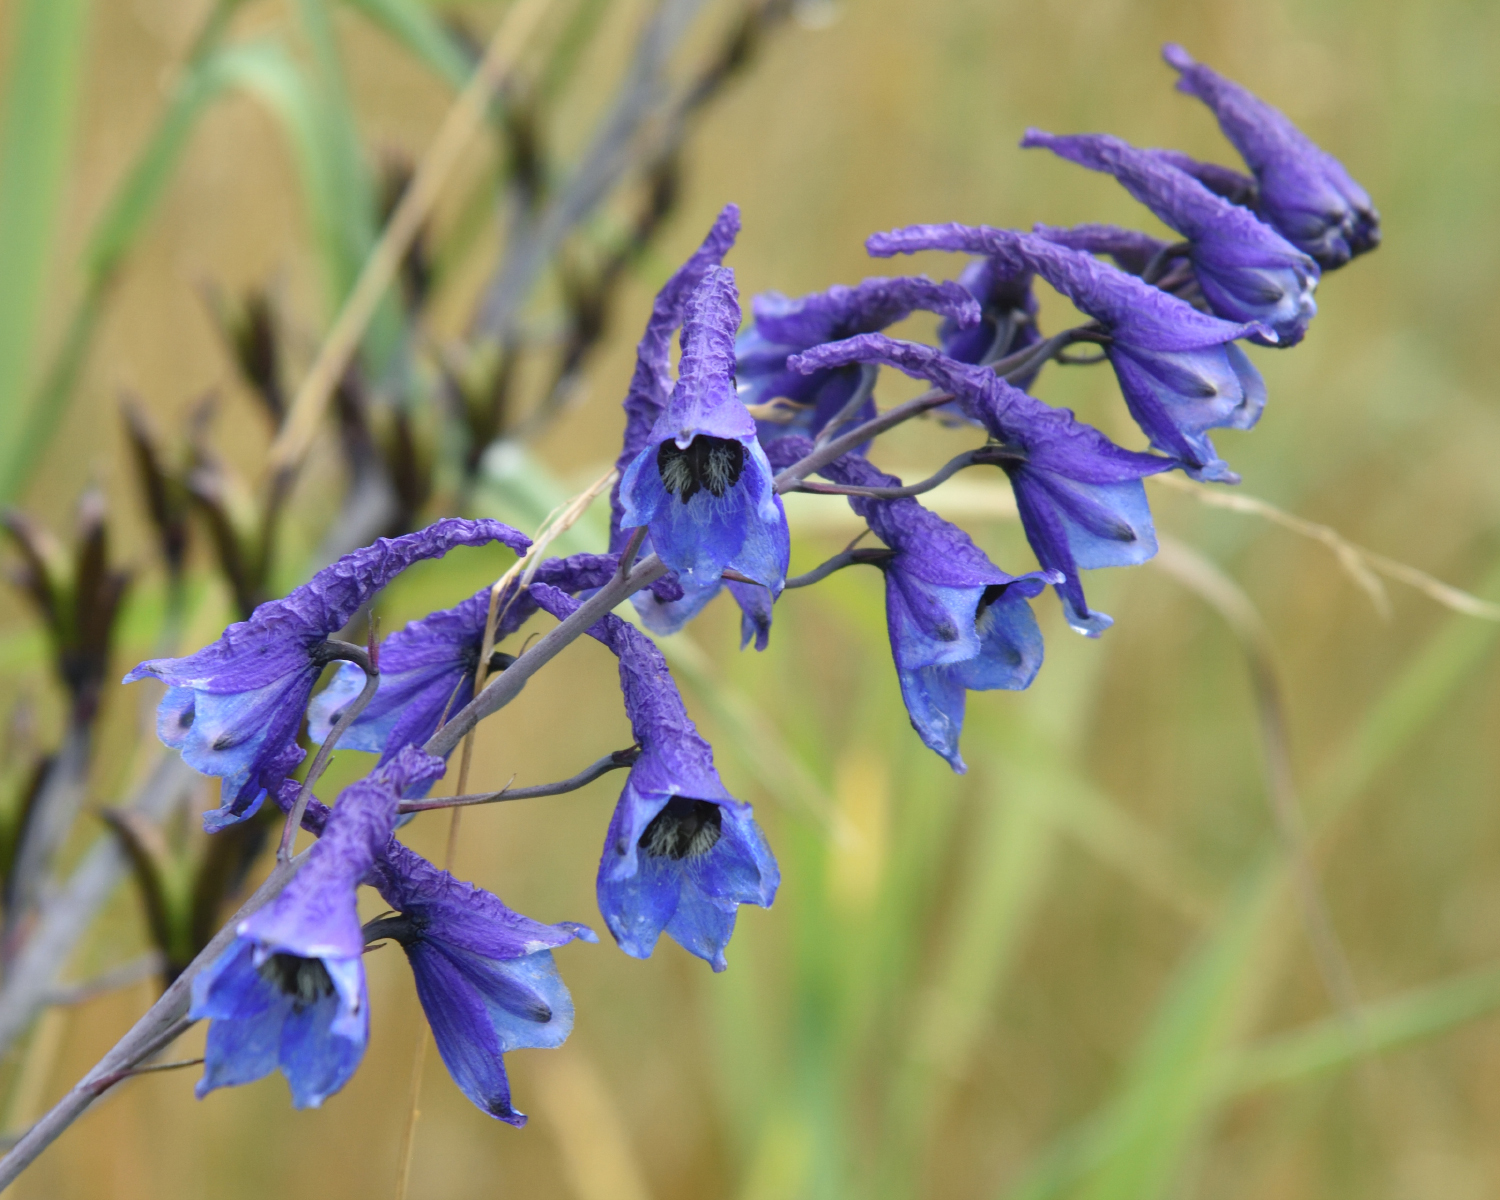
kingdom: Plantae
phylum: Tracheophyta
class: Magnoliopsida
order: Ranunculales
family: Ranunculaceae
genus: Delphinium
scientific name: Delphinium elatum
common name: Candle larkspur
